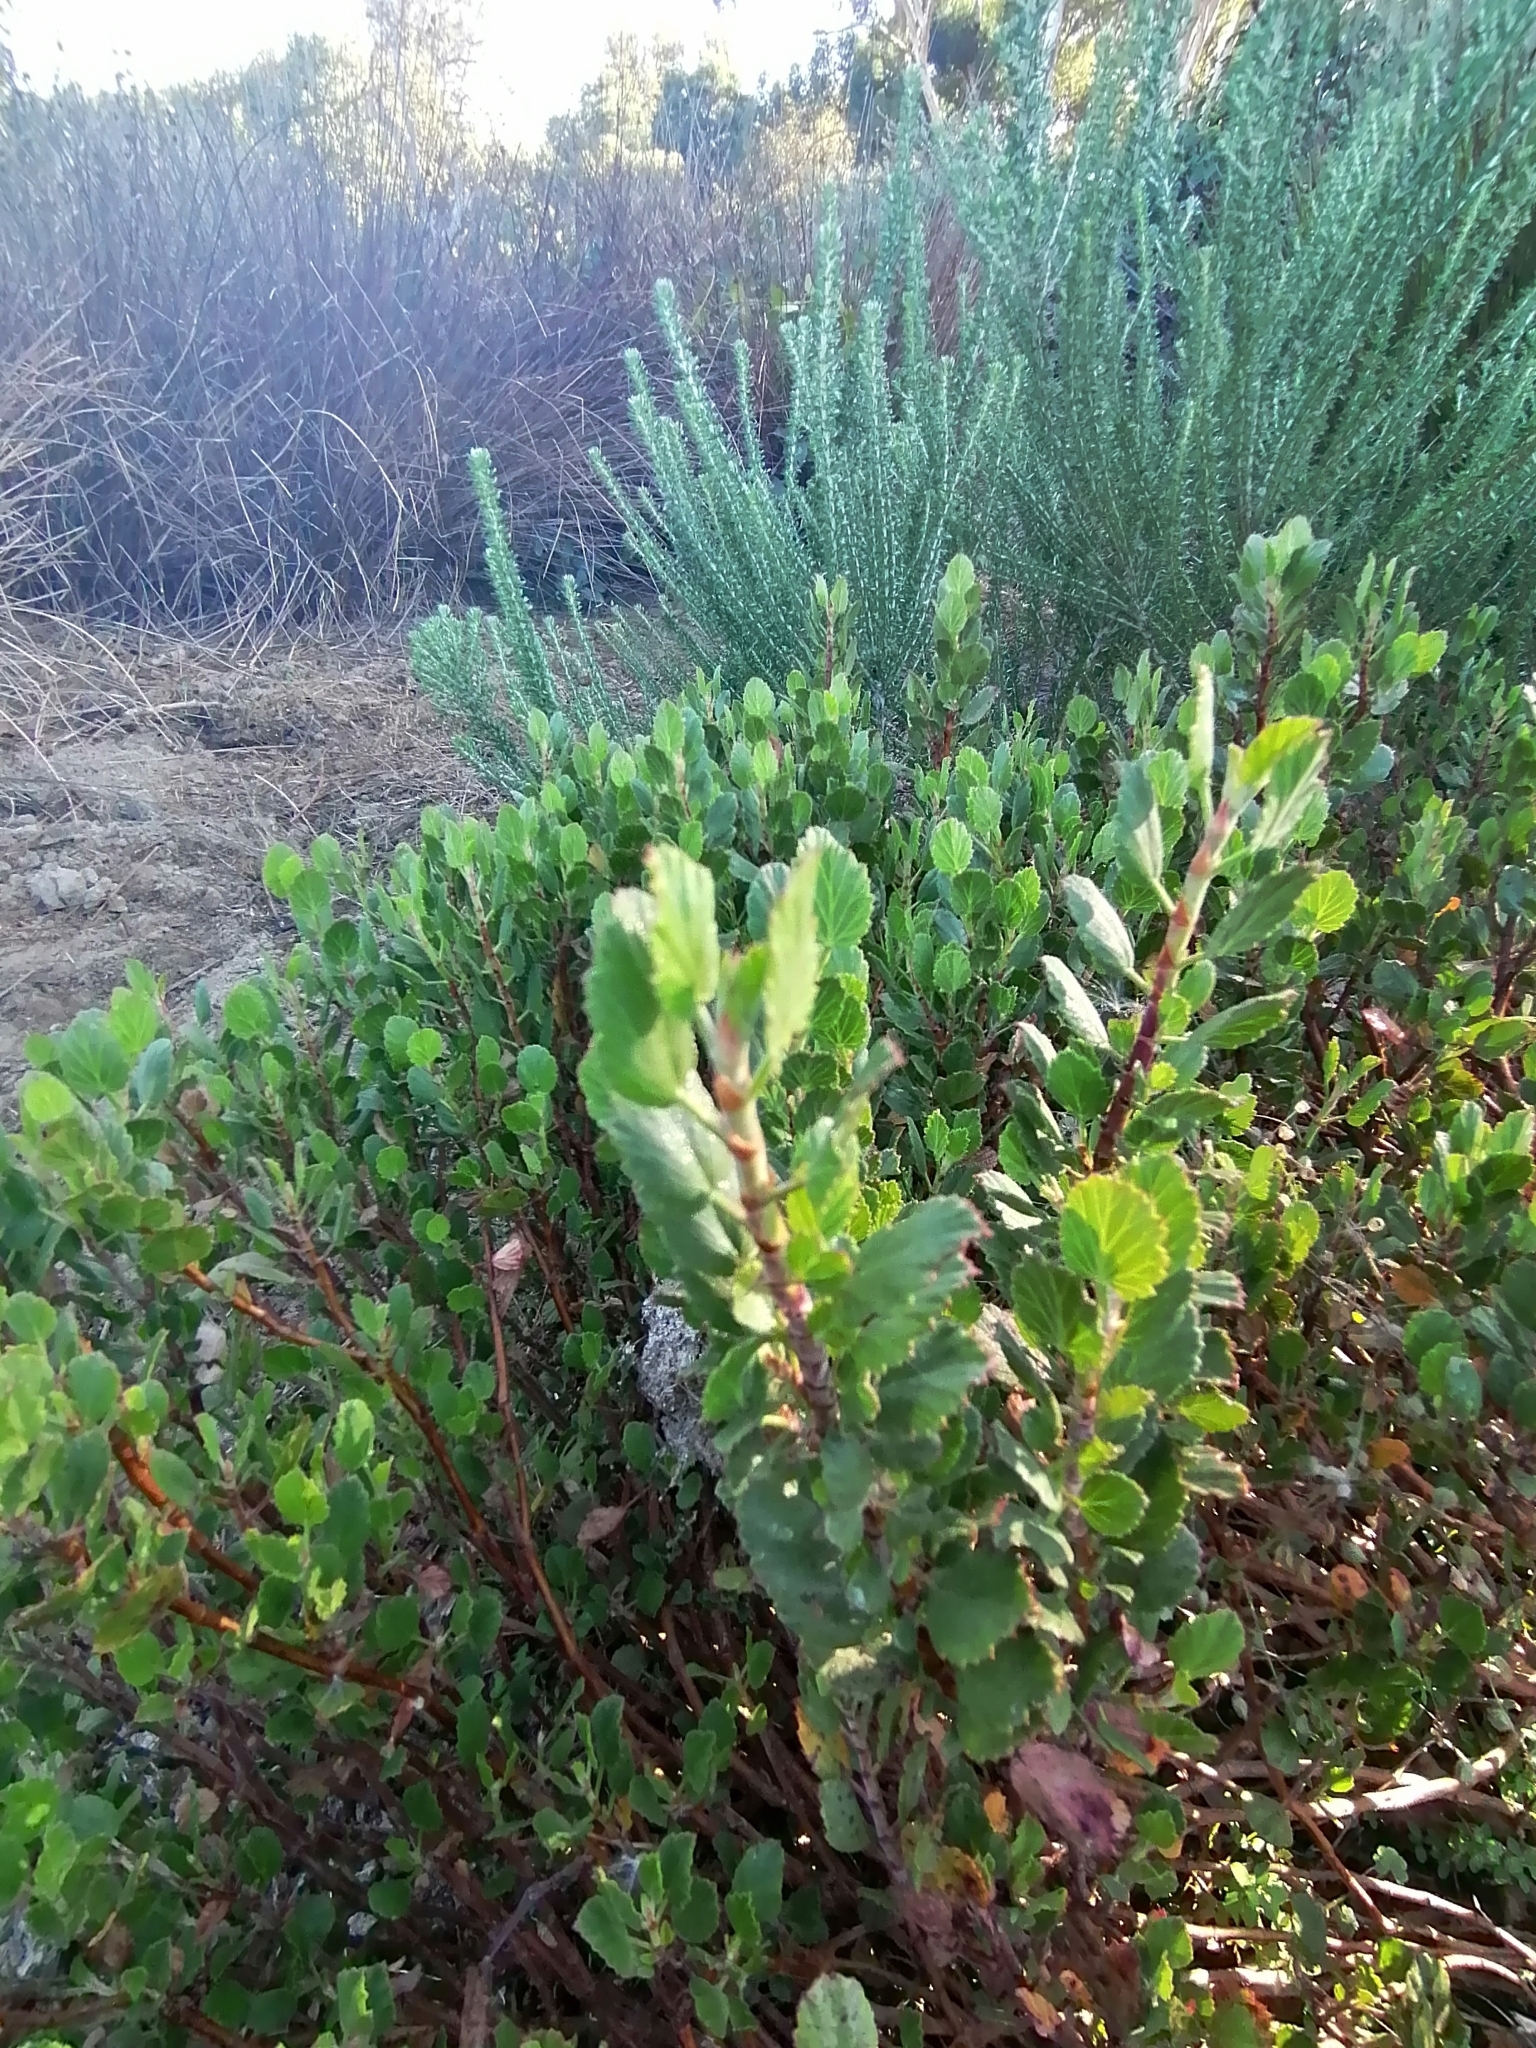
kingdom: Plantae
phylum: Tracheophyta
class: Magnoliopsida
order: Geraniales
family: Geraniaceae
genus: Pelargonium
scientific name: Pelargonium betulinum
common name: Birch-leaf pelargonium
